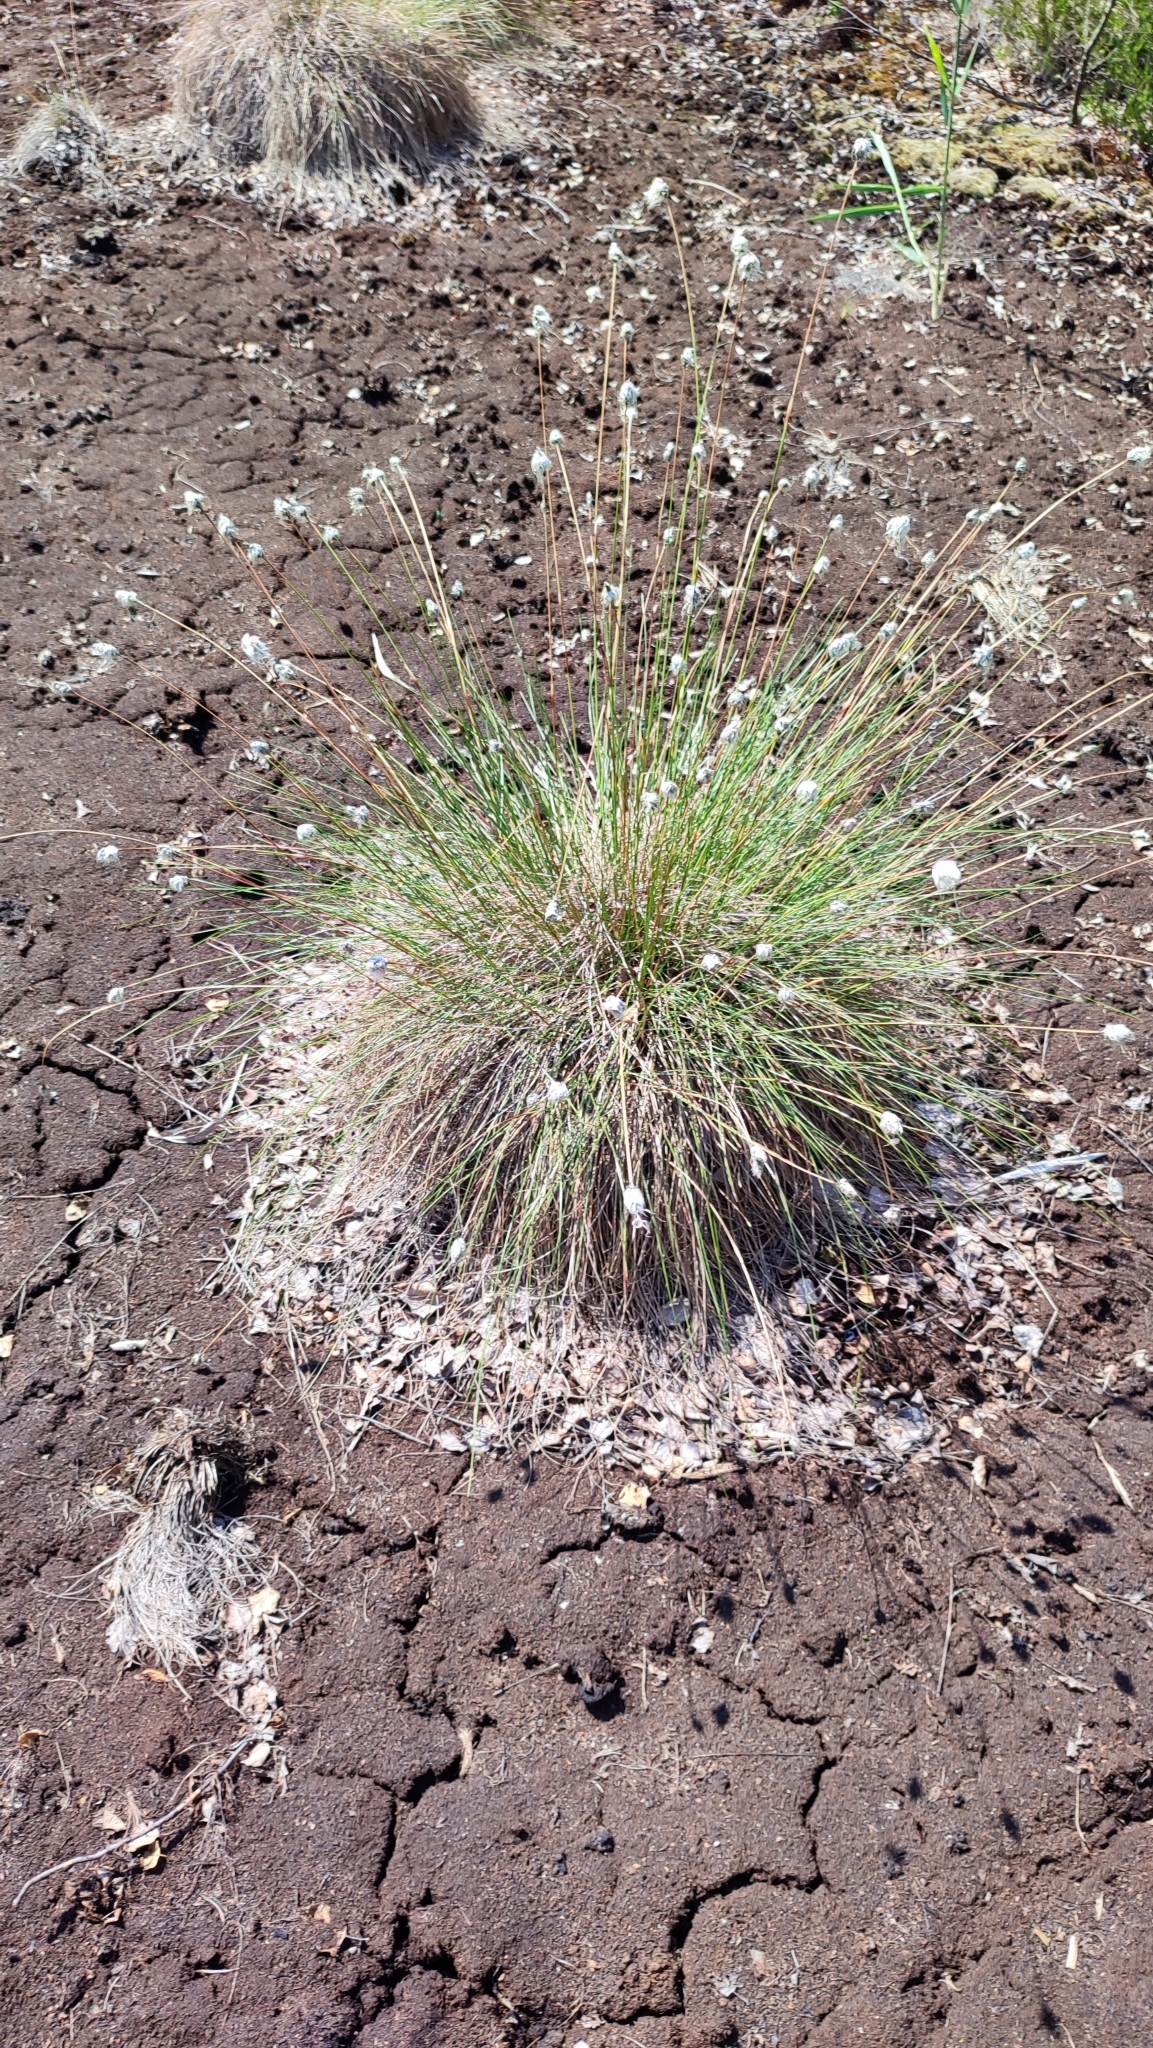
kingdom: Plantae
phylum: Tracheophyta
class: Liliopsida
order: Poales
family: Cyperaceae
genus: Eriophorum
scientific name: Eriophorum vaginatum
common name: Hare's-tail cottongrass
